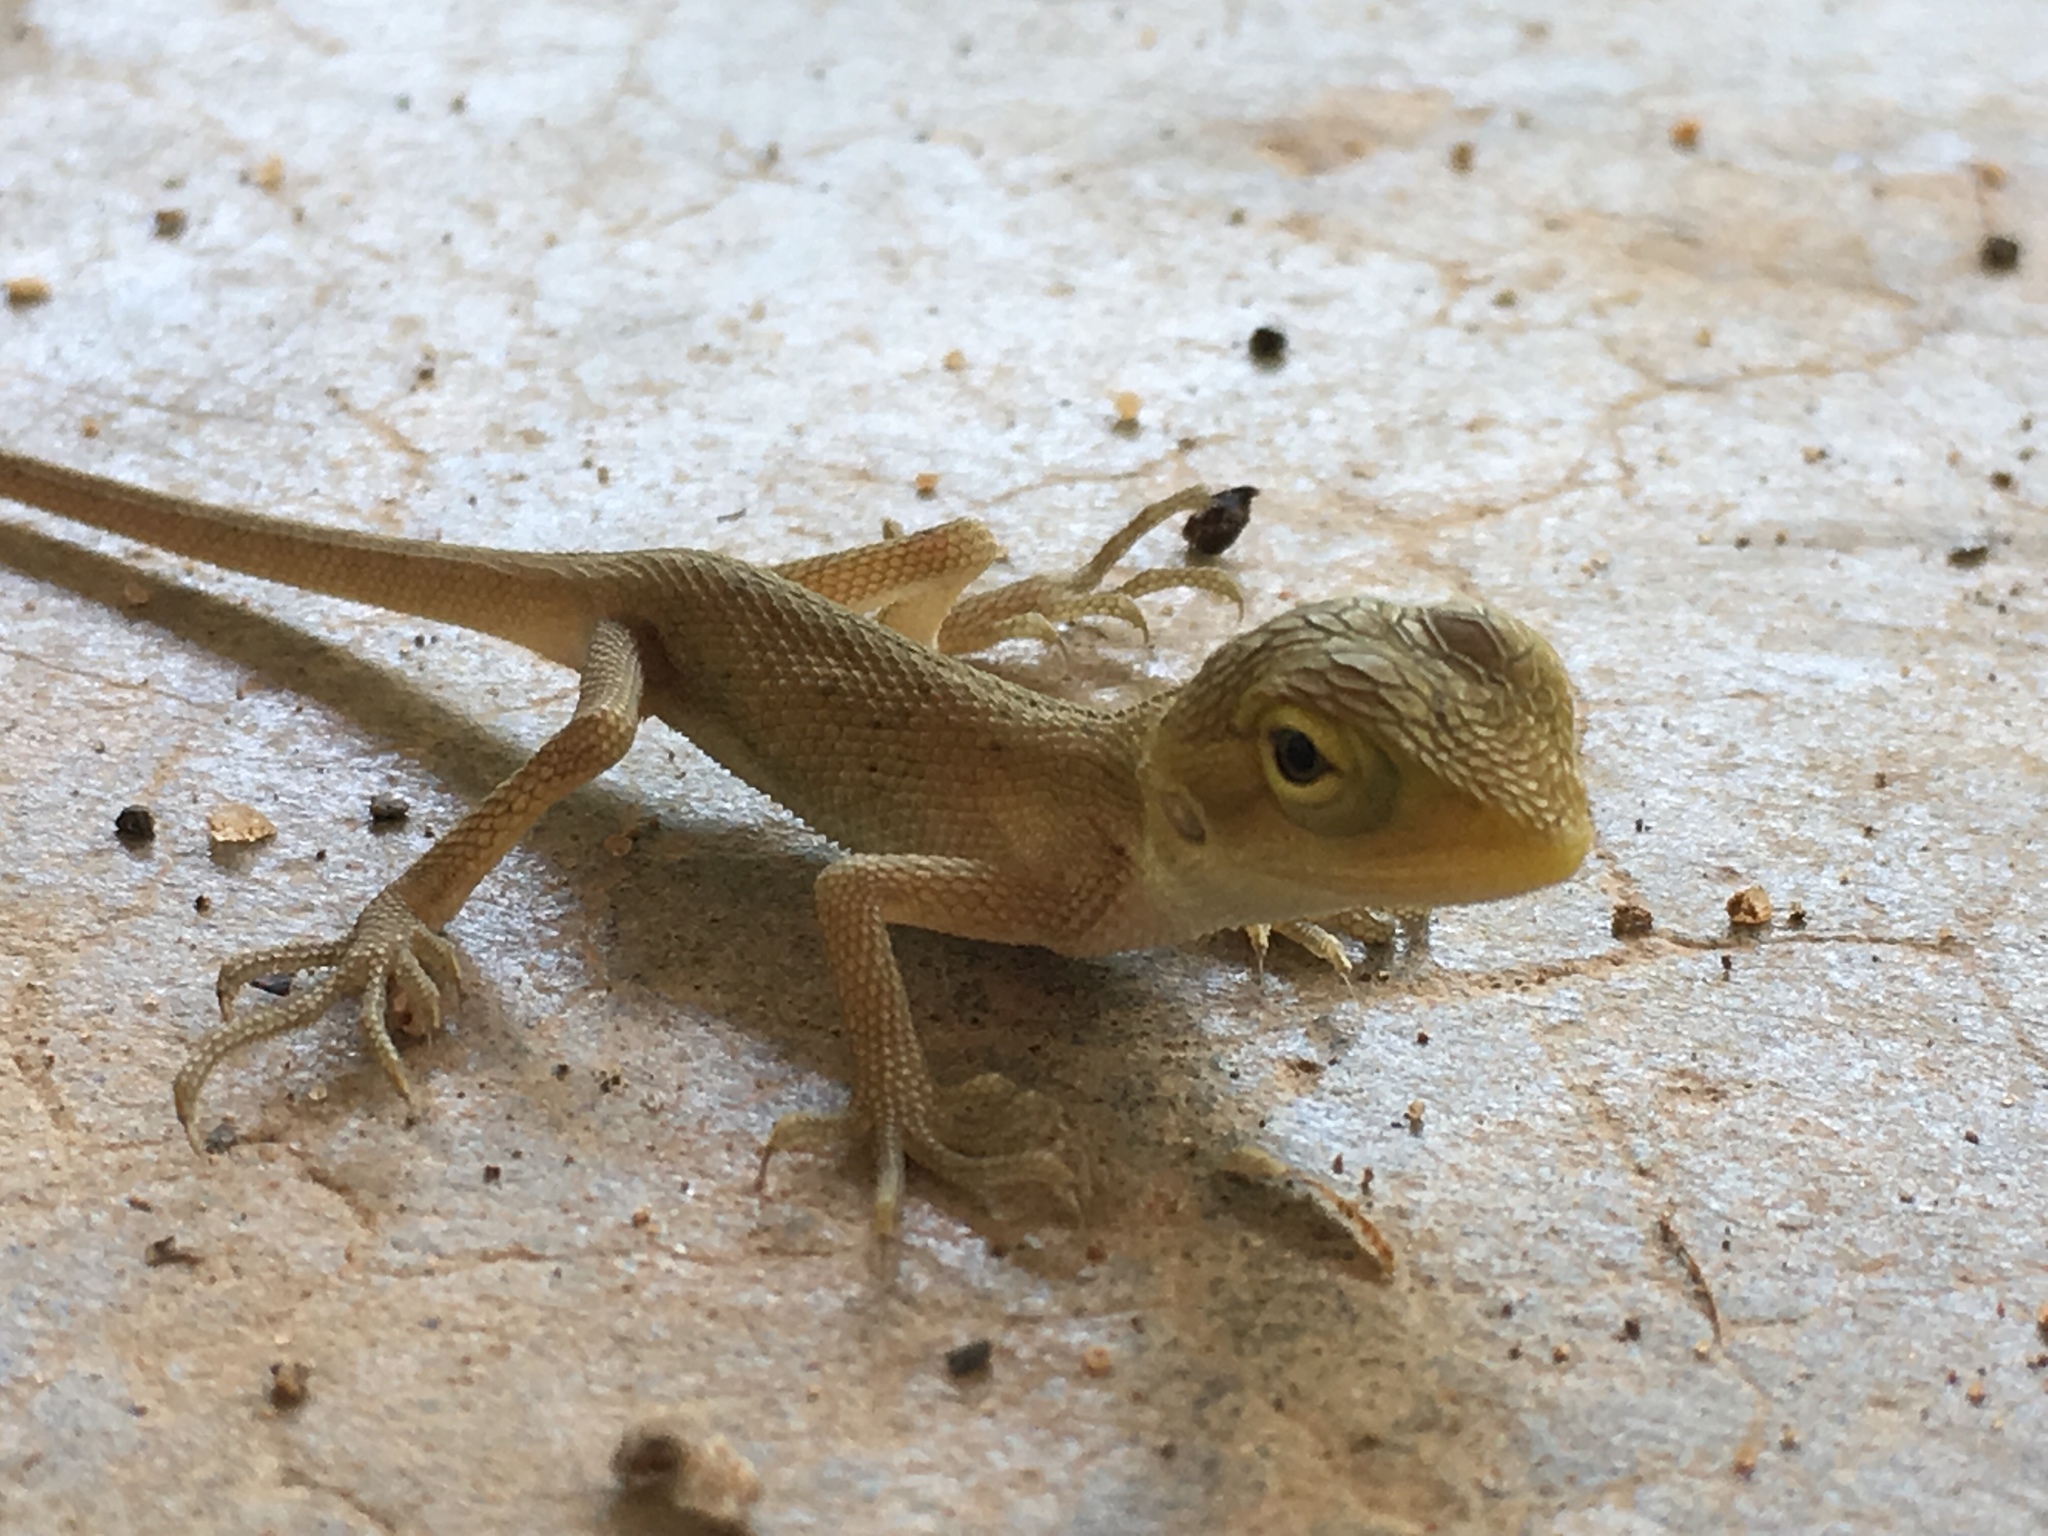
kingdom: Animalia
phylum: Chordata
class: Squamata
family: Agamidae
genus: Calotes
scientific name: Calotes versicolor
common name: Oriental garden lizard
